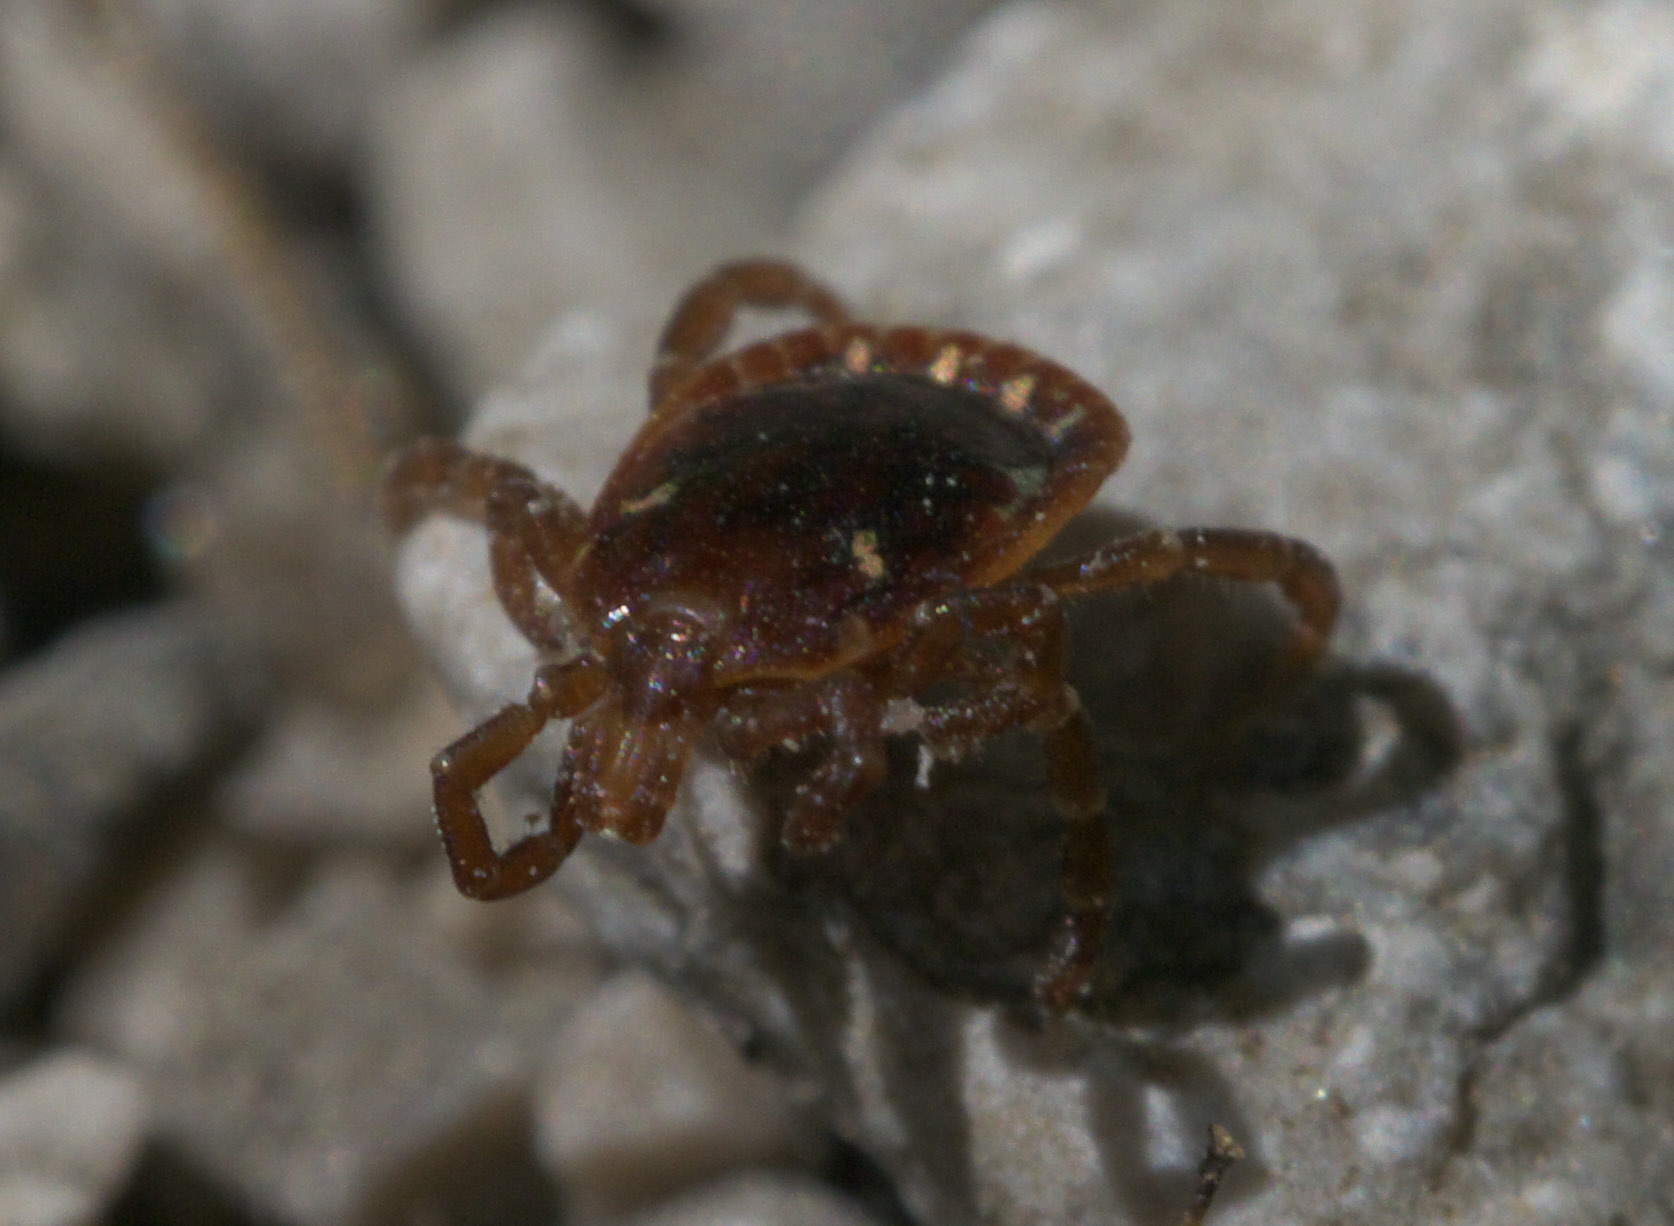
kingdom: Animalia
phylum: Arthropoda
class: Arachnida
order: Ixodida
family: Ixodidae
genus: Amblyomma
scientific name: Amblyomma americanum
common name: Lone star tick
